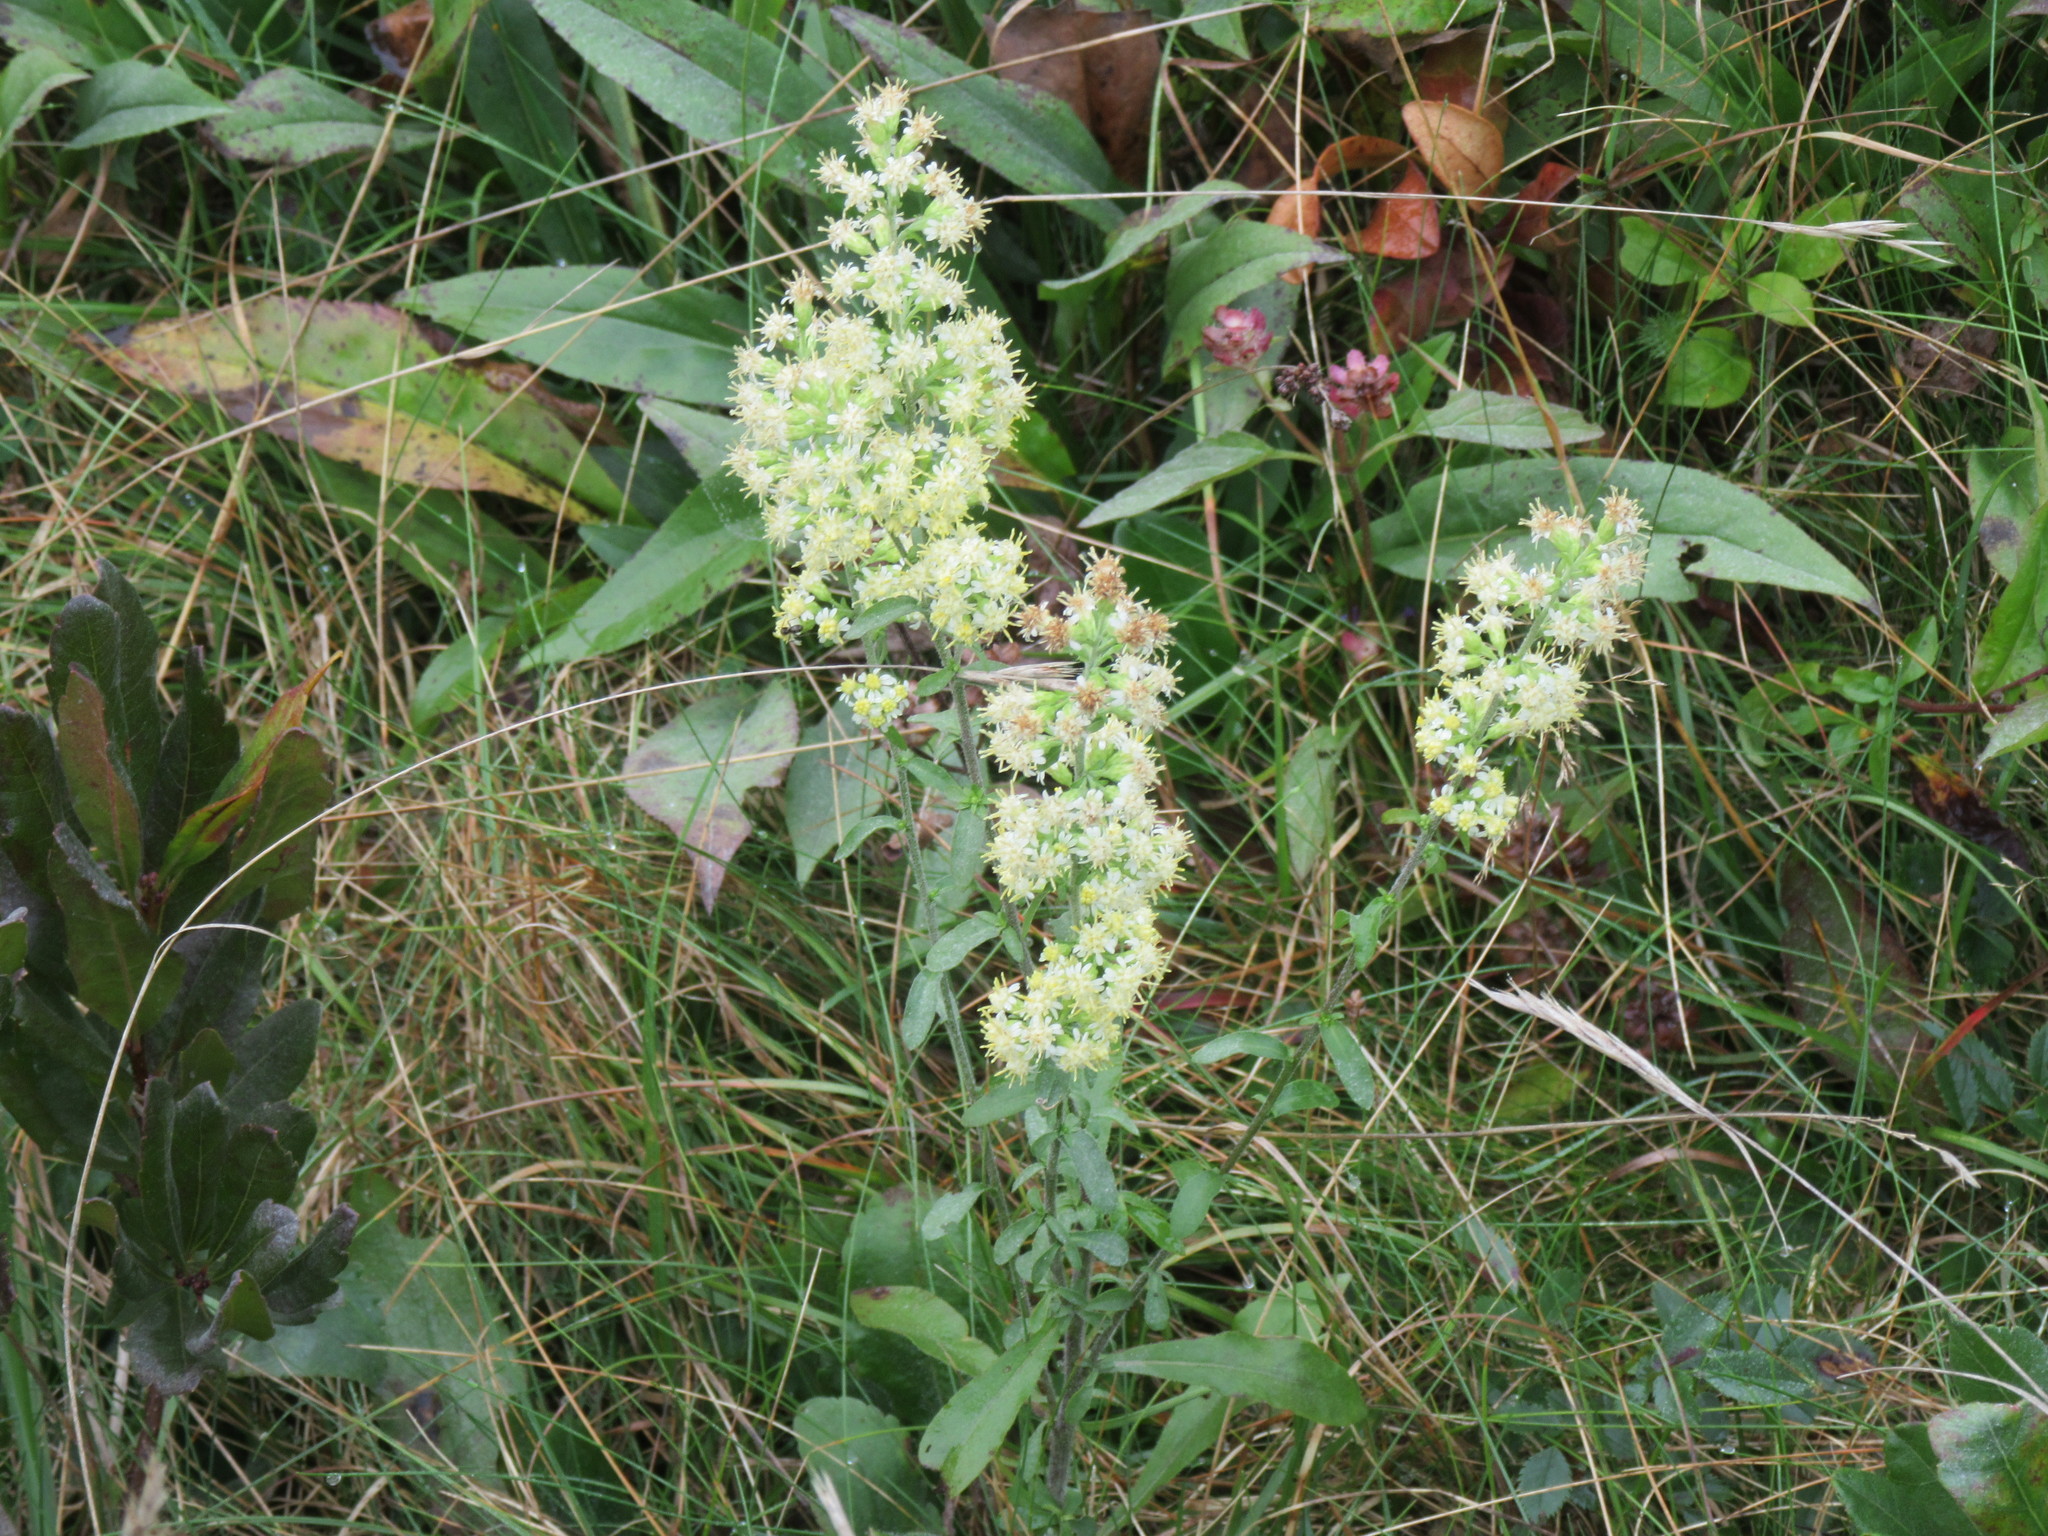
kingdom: Plantae
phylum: Tracheophyta
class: Magnoliopsida
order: Asterales
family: Asteraceae
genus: Solidago
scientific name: Solidago bicolor
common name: Silverrod
